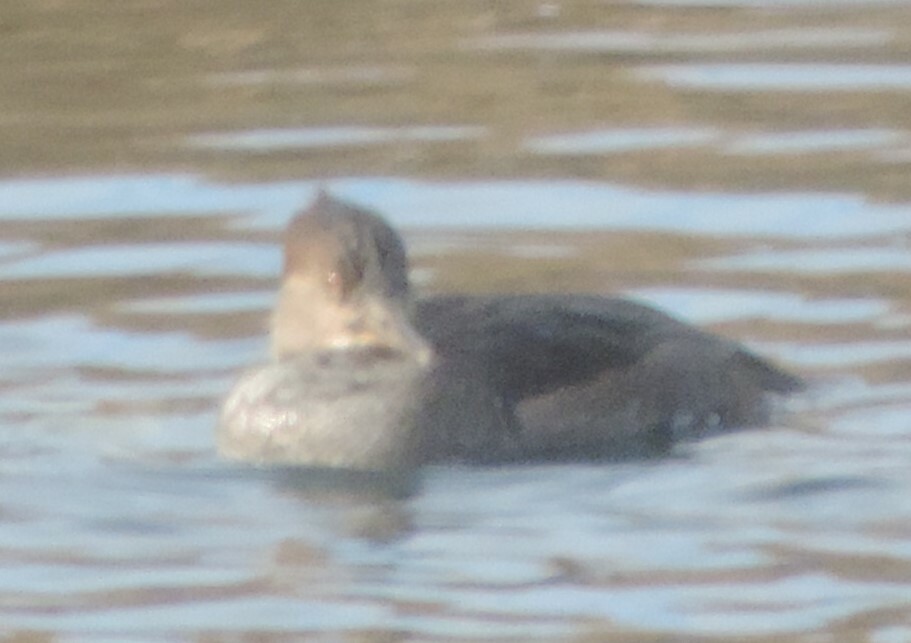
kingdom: Animalia
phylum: Chordata
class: Aves
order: Anseriformes
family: Anatidae
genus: Lophodytes
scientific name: Lophodytes cucullatus
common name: Hooded merganser
